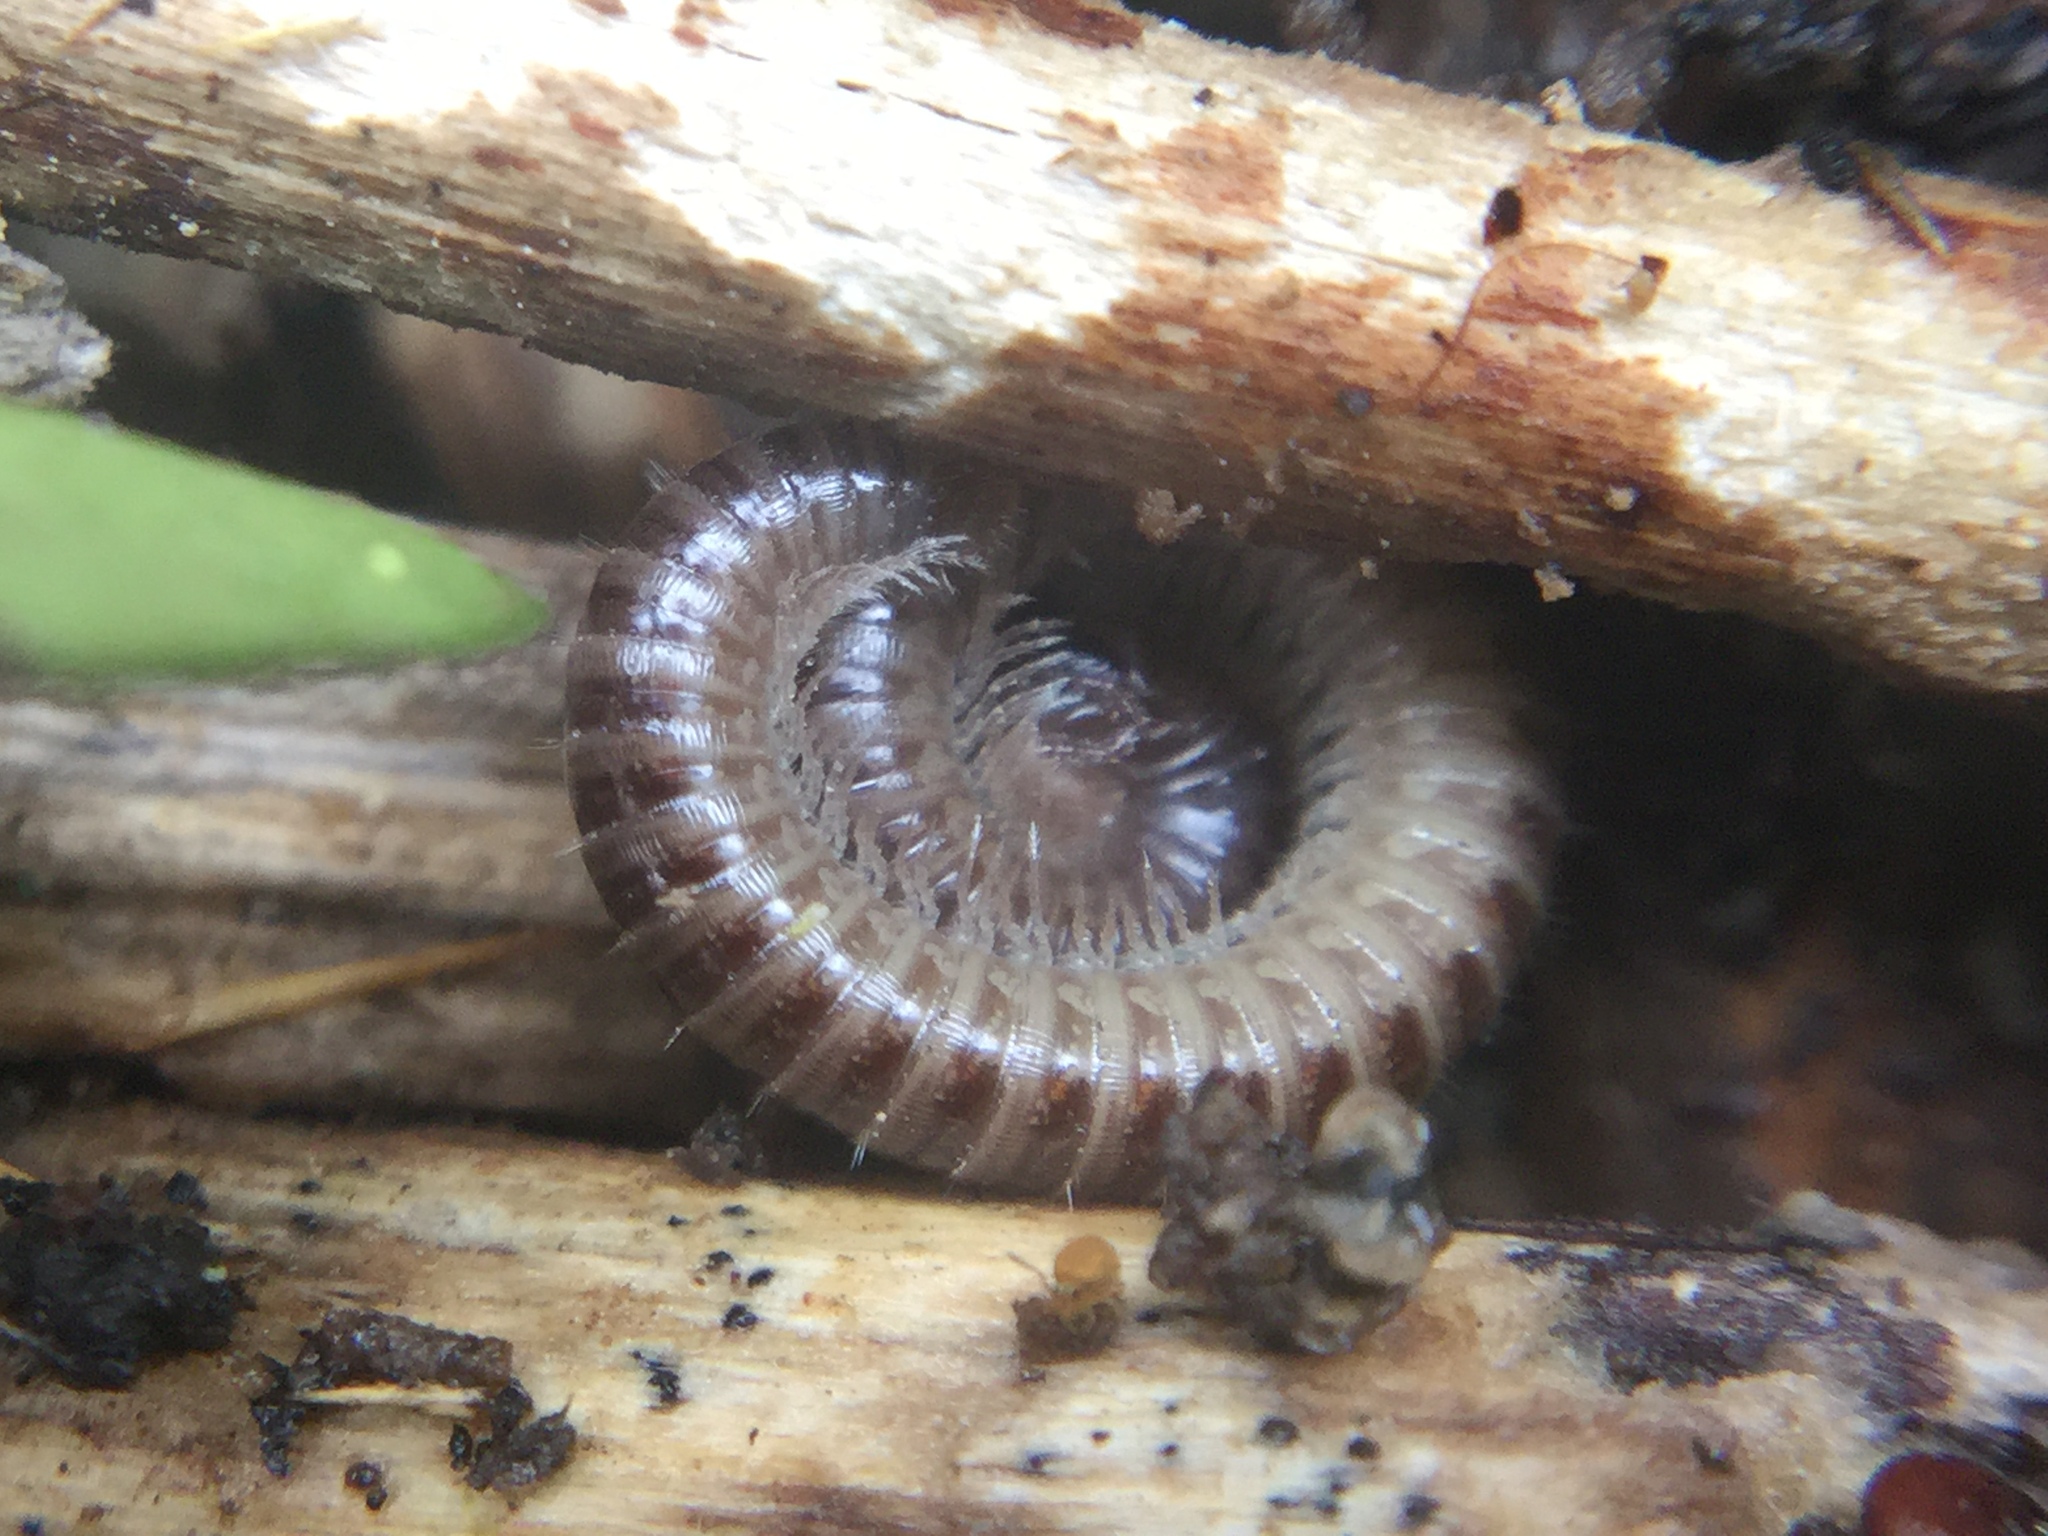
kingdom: Animalia
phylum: Arthropoda
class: Diplopoda
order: Julida
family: Julidae
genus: Ophyiulus
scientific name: Ophyiulus pilosus
